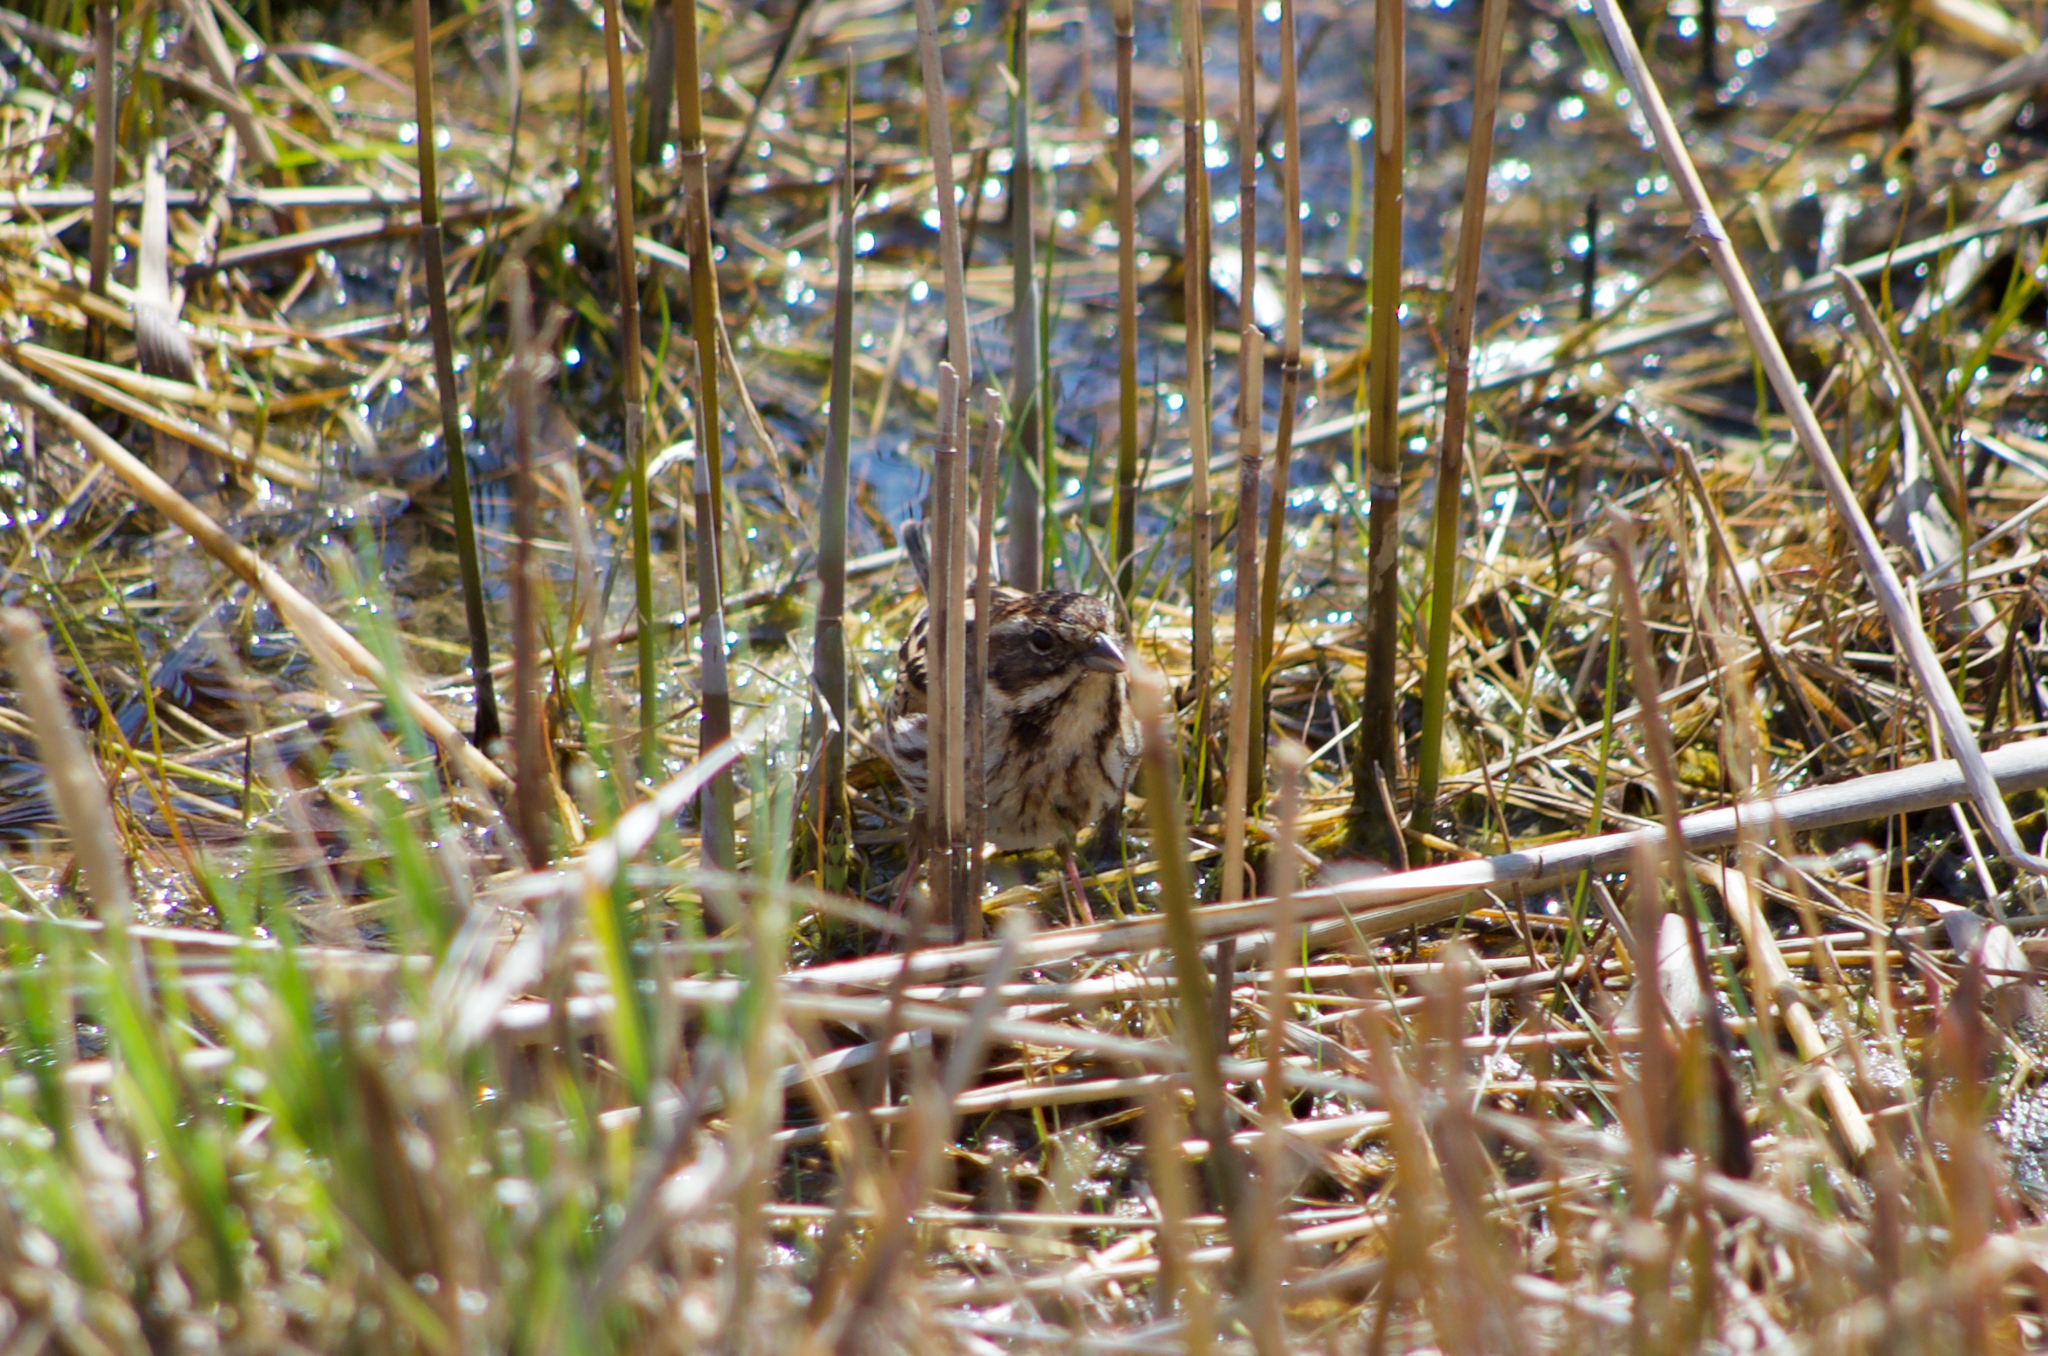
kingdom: Animalia
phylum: Chordata
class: Aves
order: Passeriformes
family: Emberizidae
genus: Emberiza
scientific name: Emberiza schoeniclus
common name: Reed bunting
